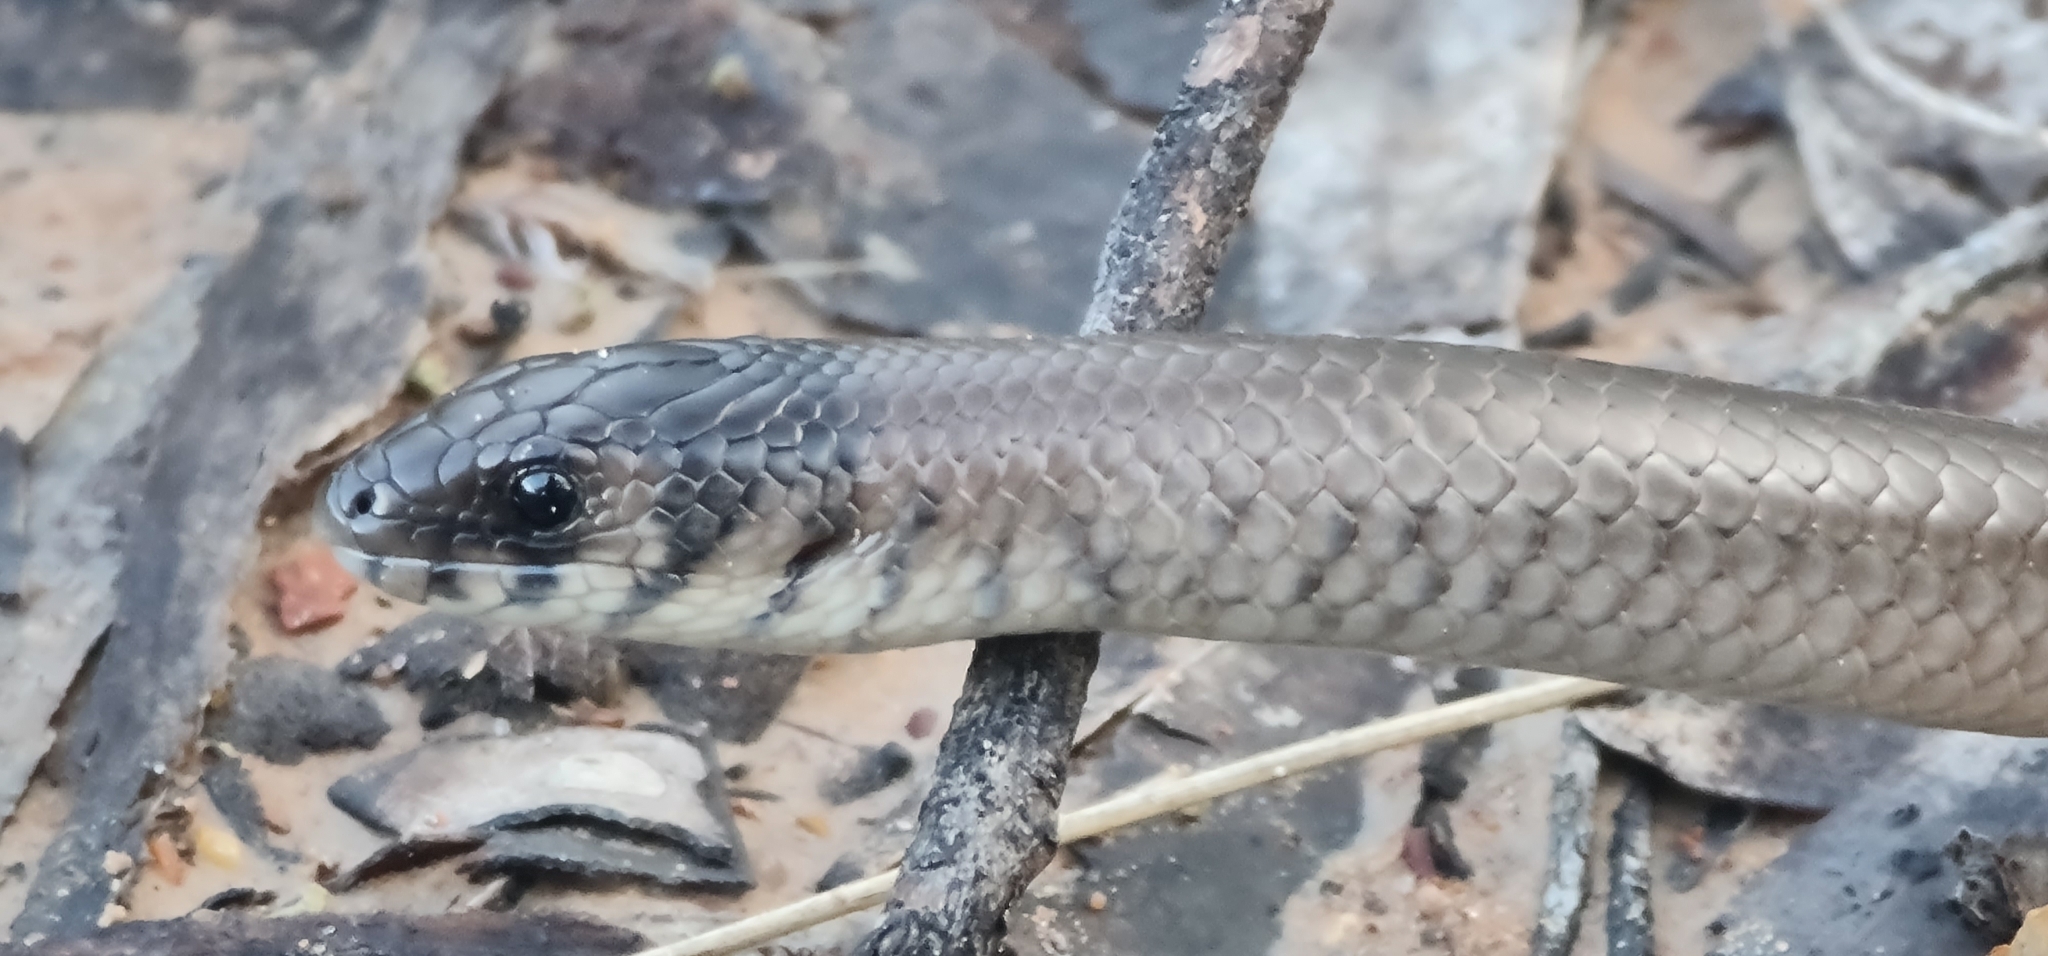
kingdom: Animalia
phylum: Chordata
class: Squamata
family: Pygopodidae
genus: Delma
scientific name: Delma plebeia
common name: Leaden delma
